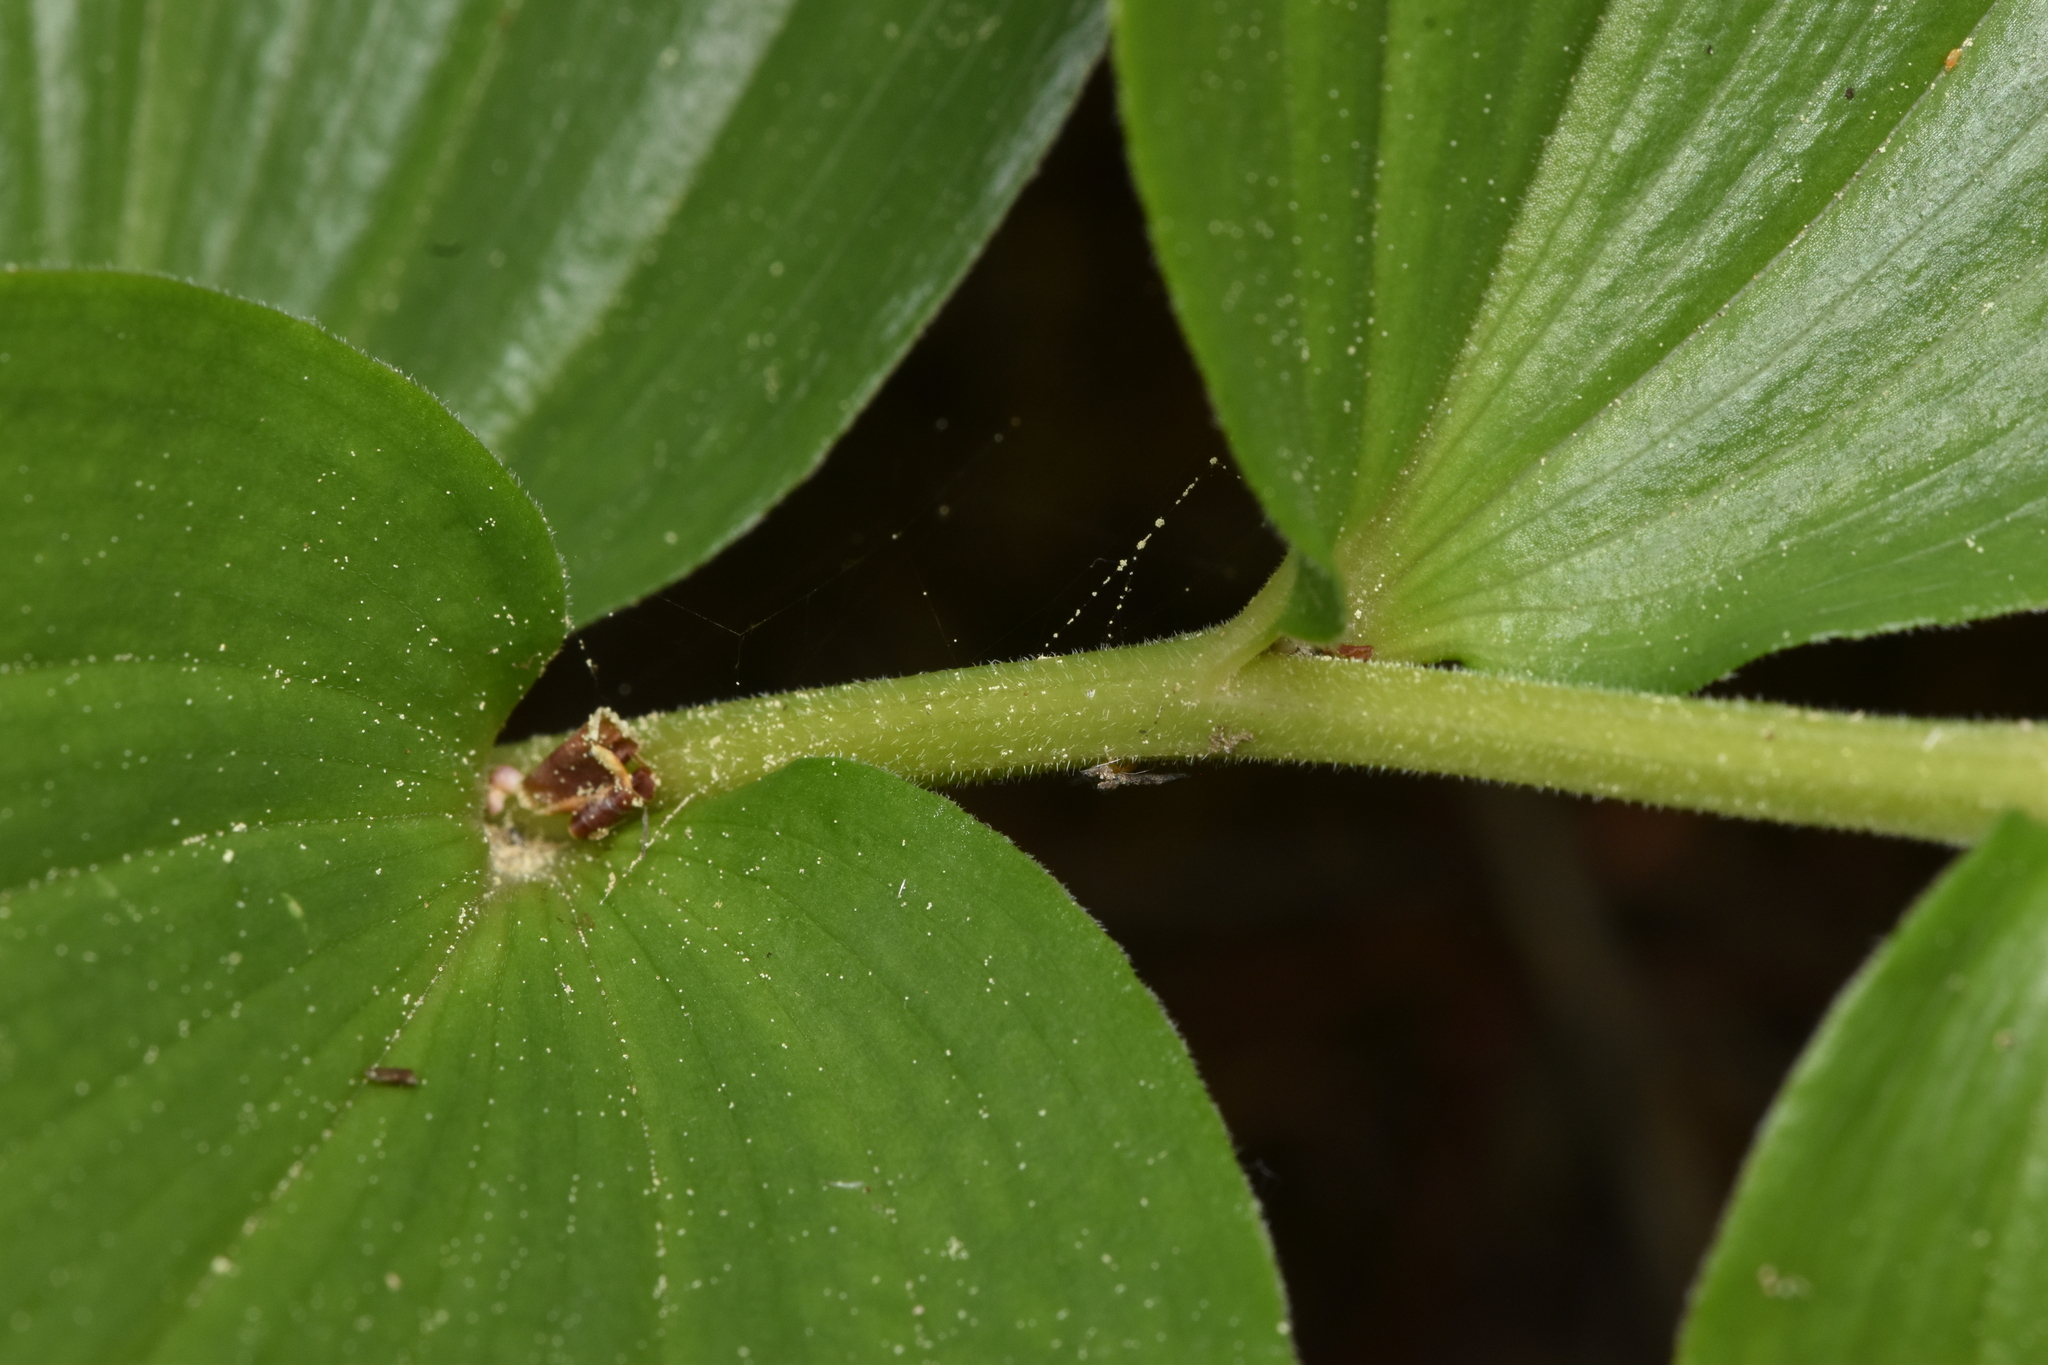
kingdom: Plantae
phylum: Tracheophyta
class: Liliopsida
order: Asparagales
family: Asparagaceae
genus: Maianthemum
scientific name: Maianthemum racemosum
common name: False spikenard
